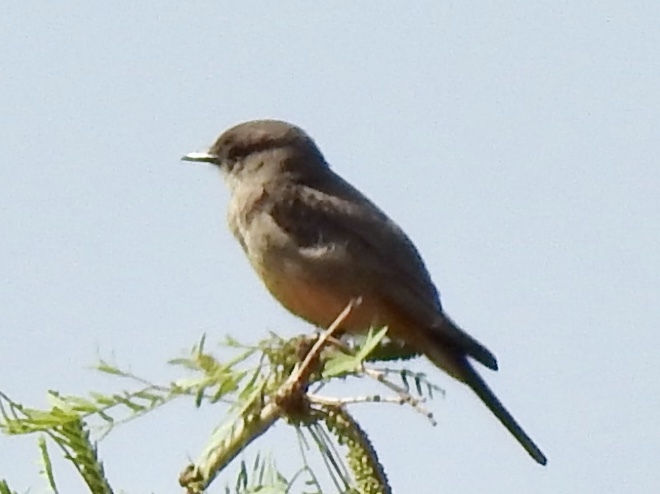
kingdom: Animalia
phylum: Chordata
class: Aves
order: Passeriformes
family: Tyrannidae
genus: Sayornis
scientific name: Sayornis saya
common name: Say's phoebe
